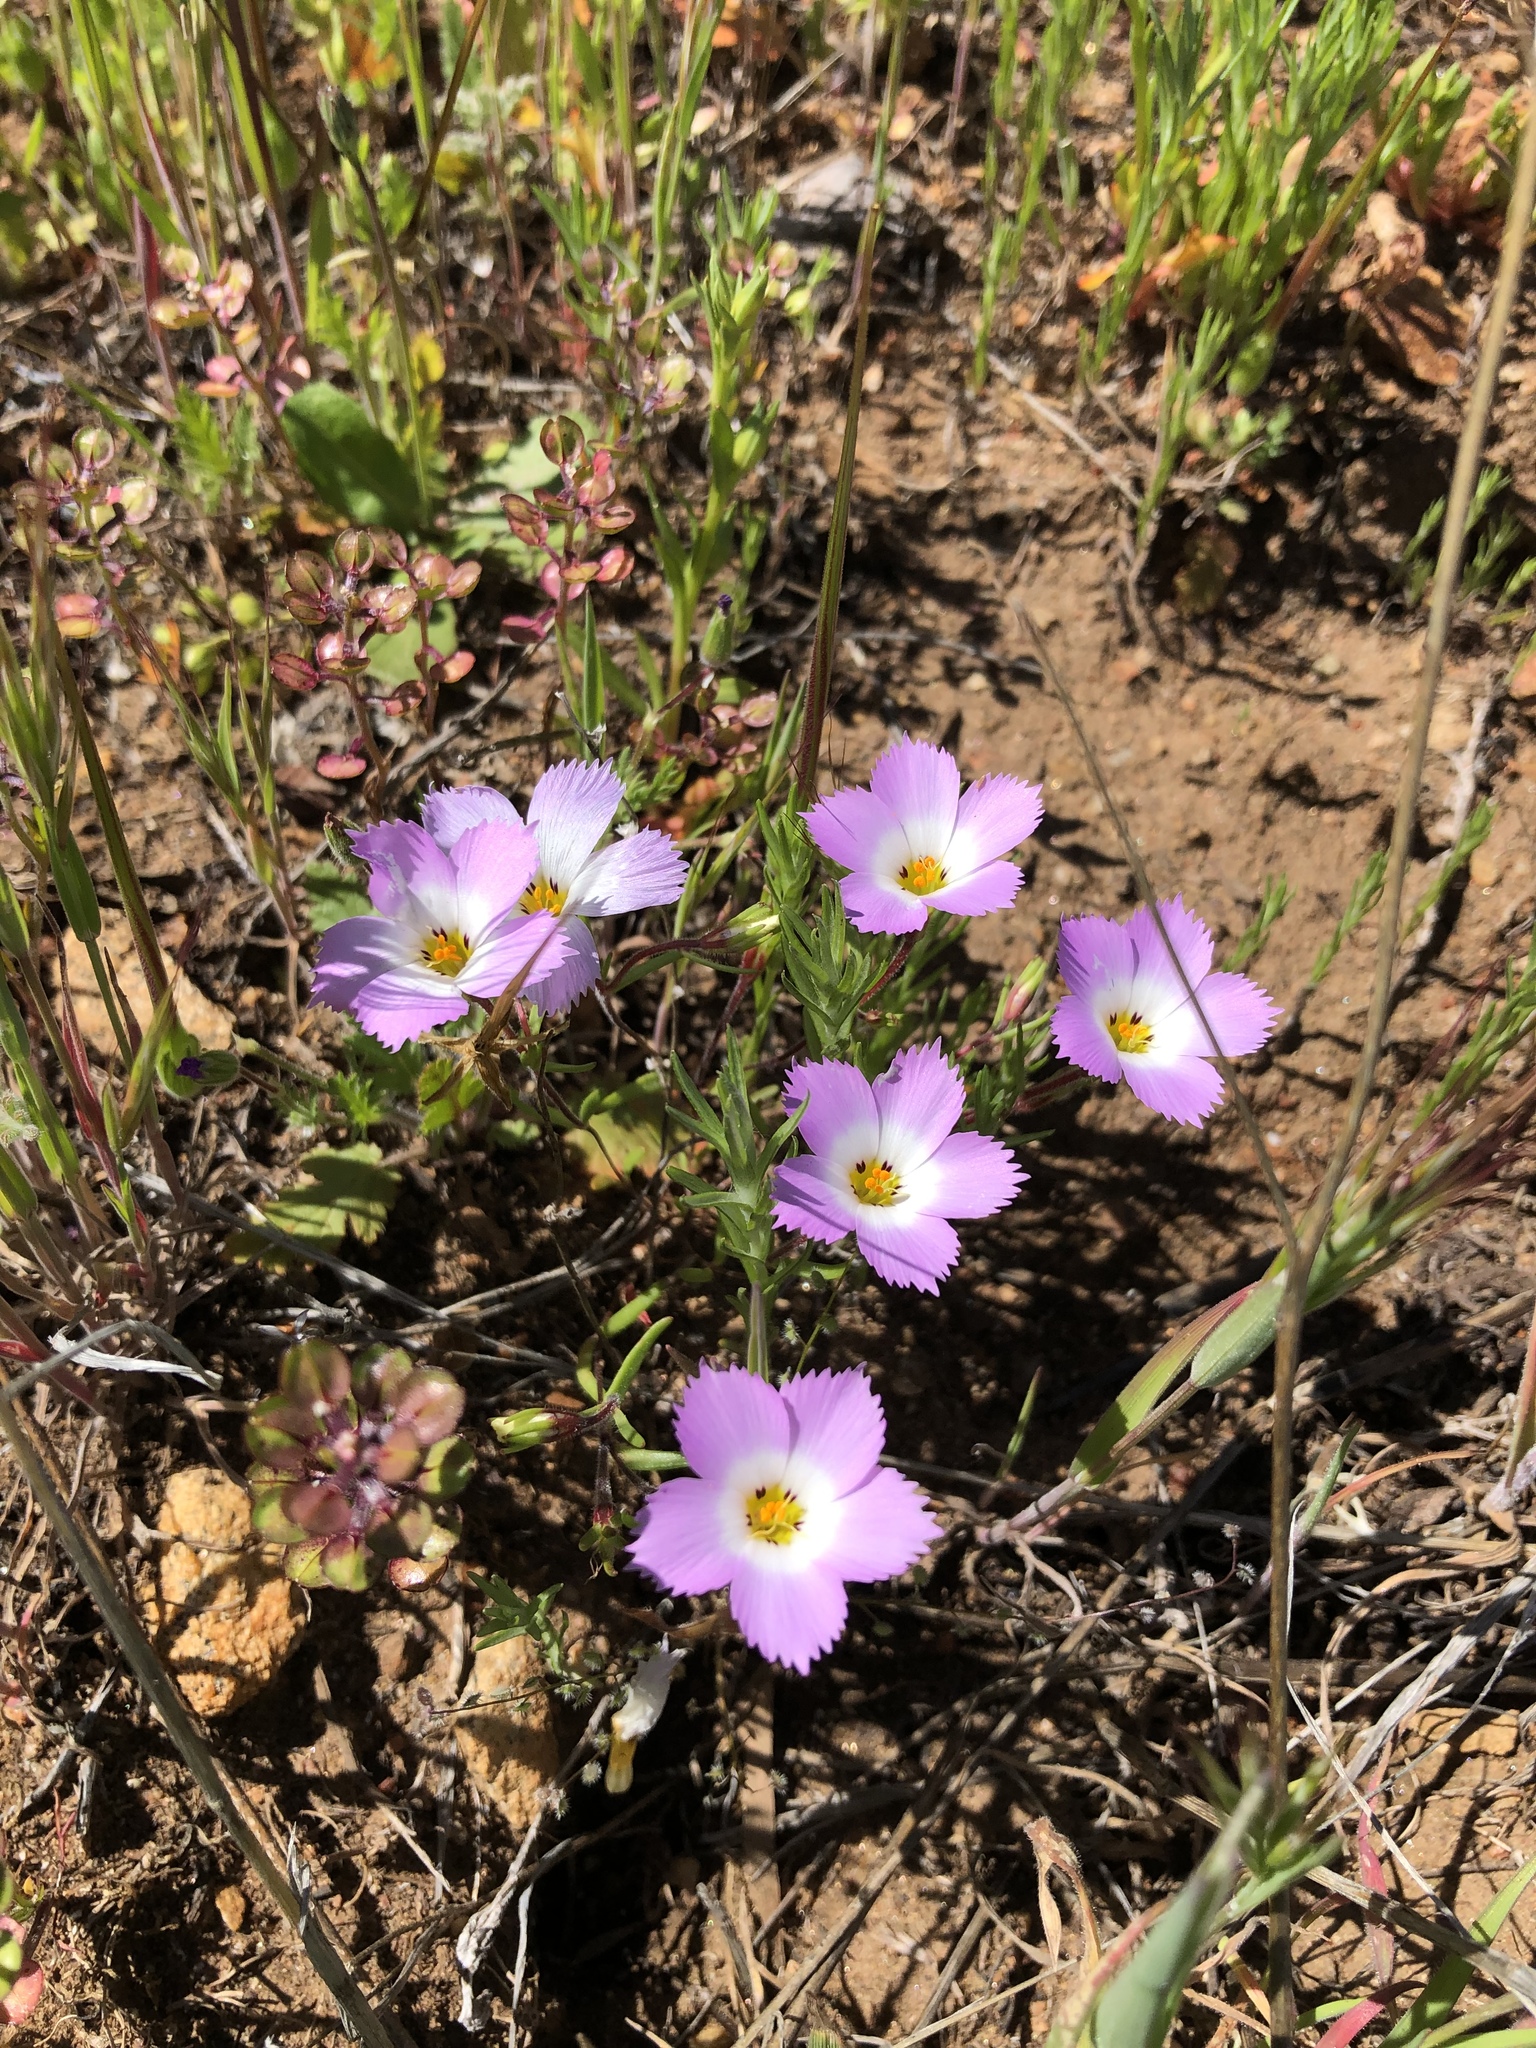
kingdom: Plantae
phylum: Tracheophyta
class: Magnoliopsida
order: Ericales
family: Polemoniaceae
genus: Linanthus
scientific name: Linanthus dianthiflorus
